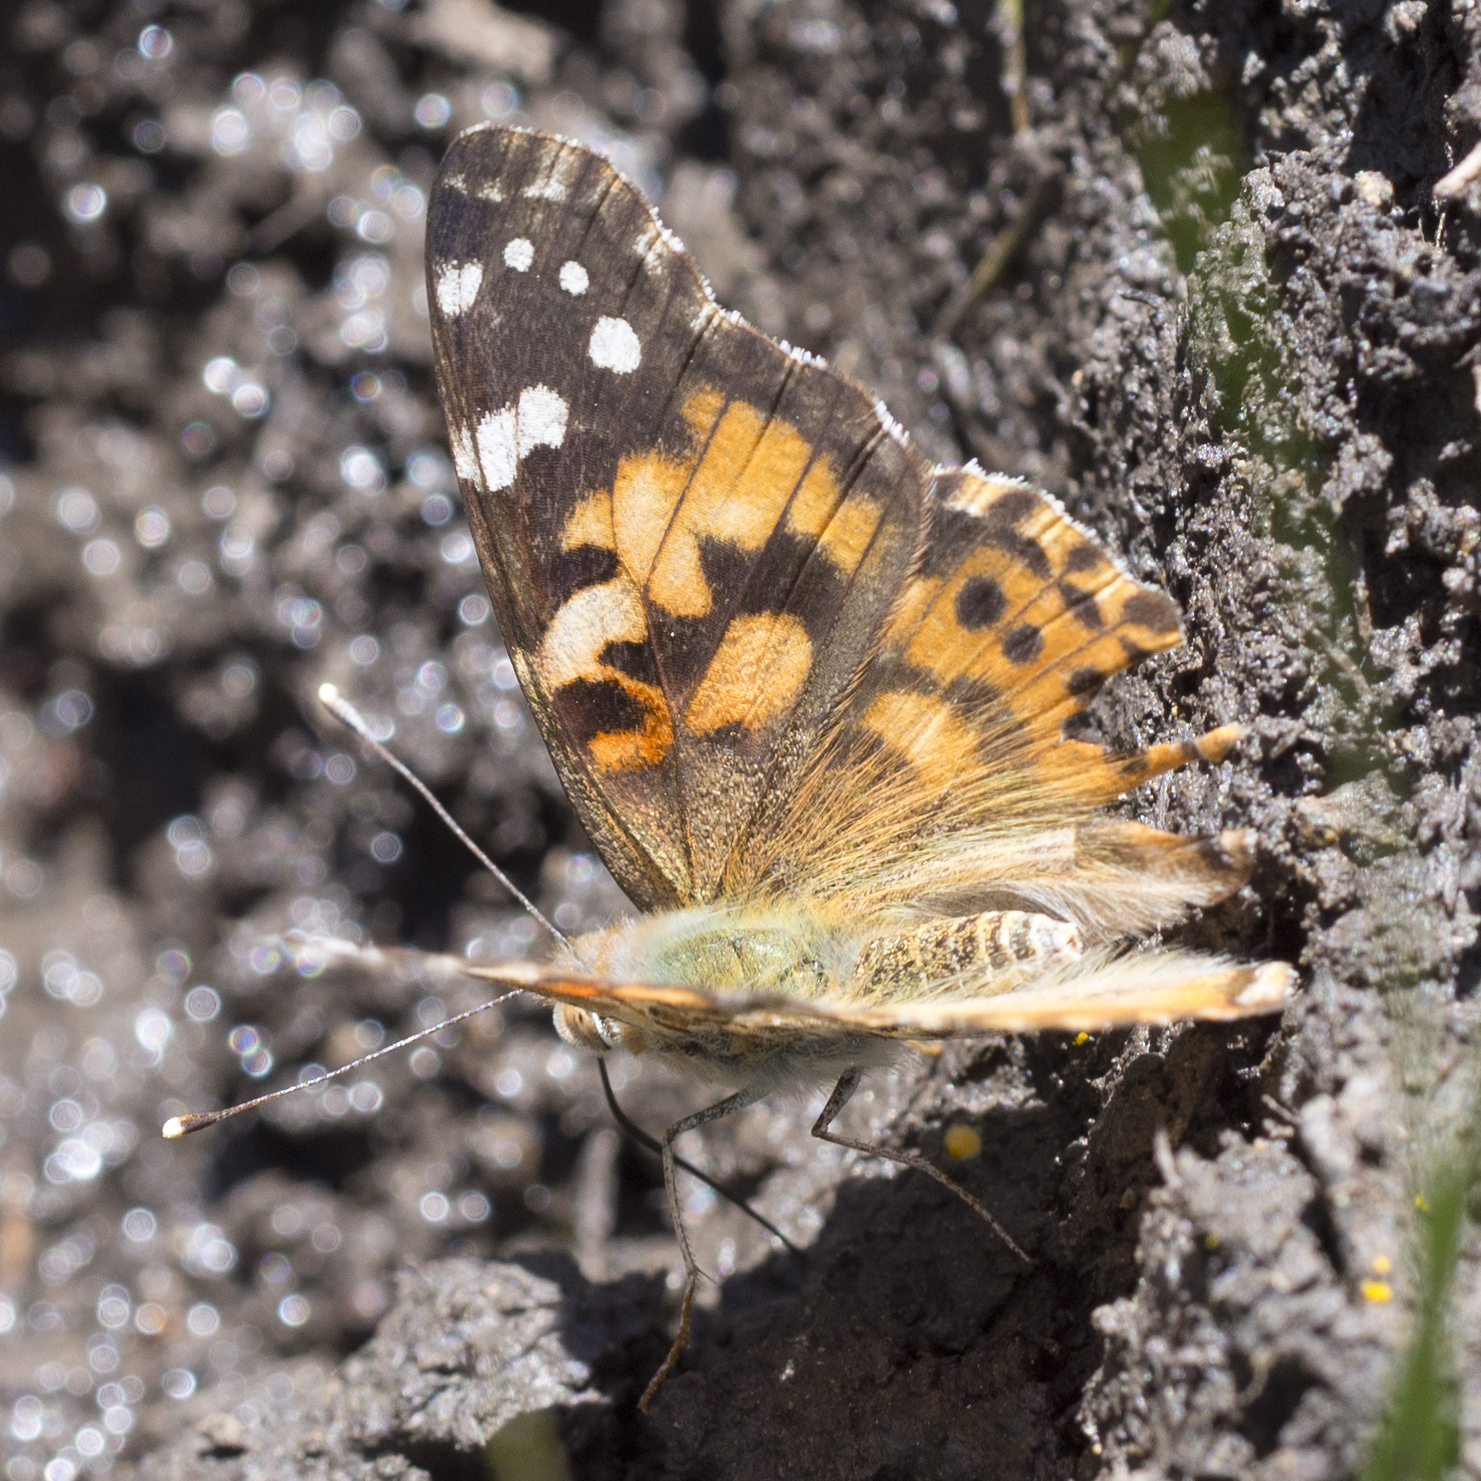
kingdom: Animalia
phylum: Arthropoda
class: Insecta
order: Lepidoptera
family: Nymphalidae
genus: Vanessa
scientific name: Vanessa cardui
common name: Painted lady
